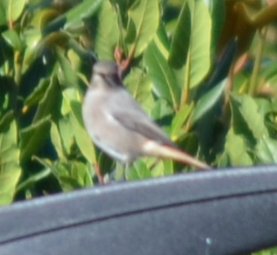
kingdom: Animalia
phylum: Chordata
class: Aves
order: Passeriformes
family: Muscicapidae
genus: Phoenicurus
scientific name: Phoenicurus ochruros
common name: Black redstart
